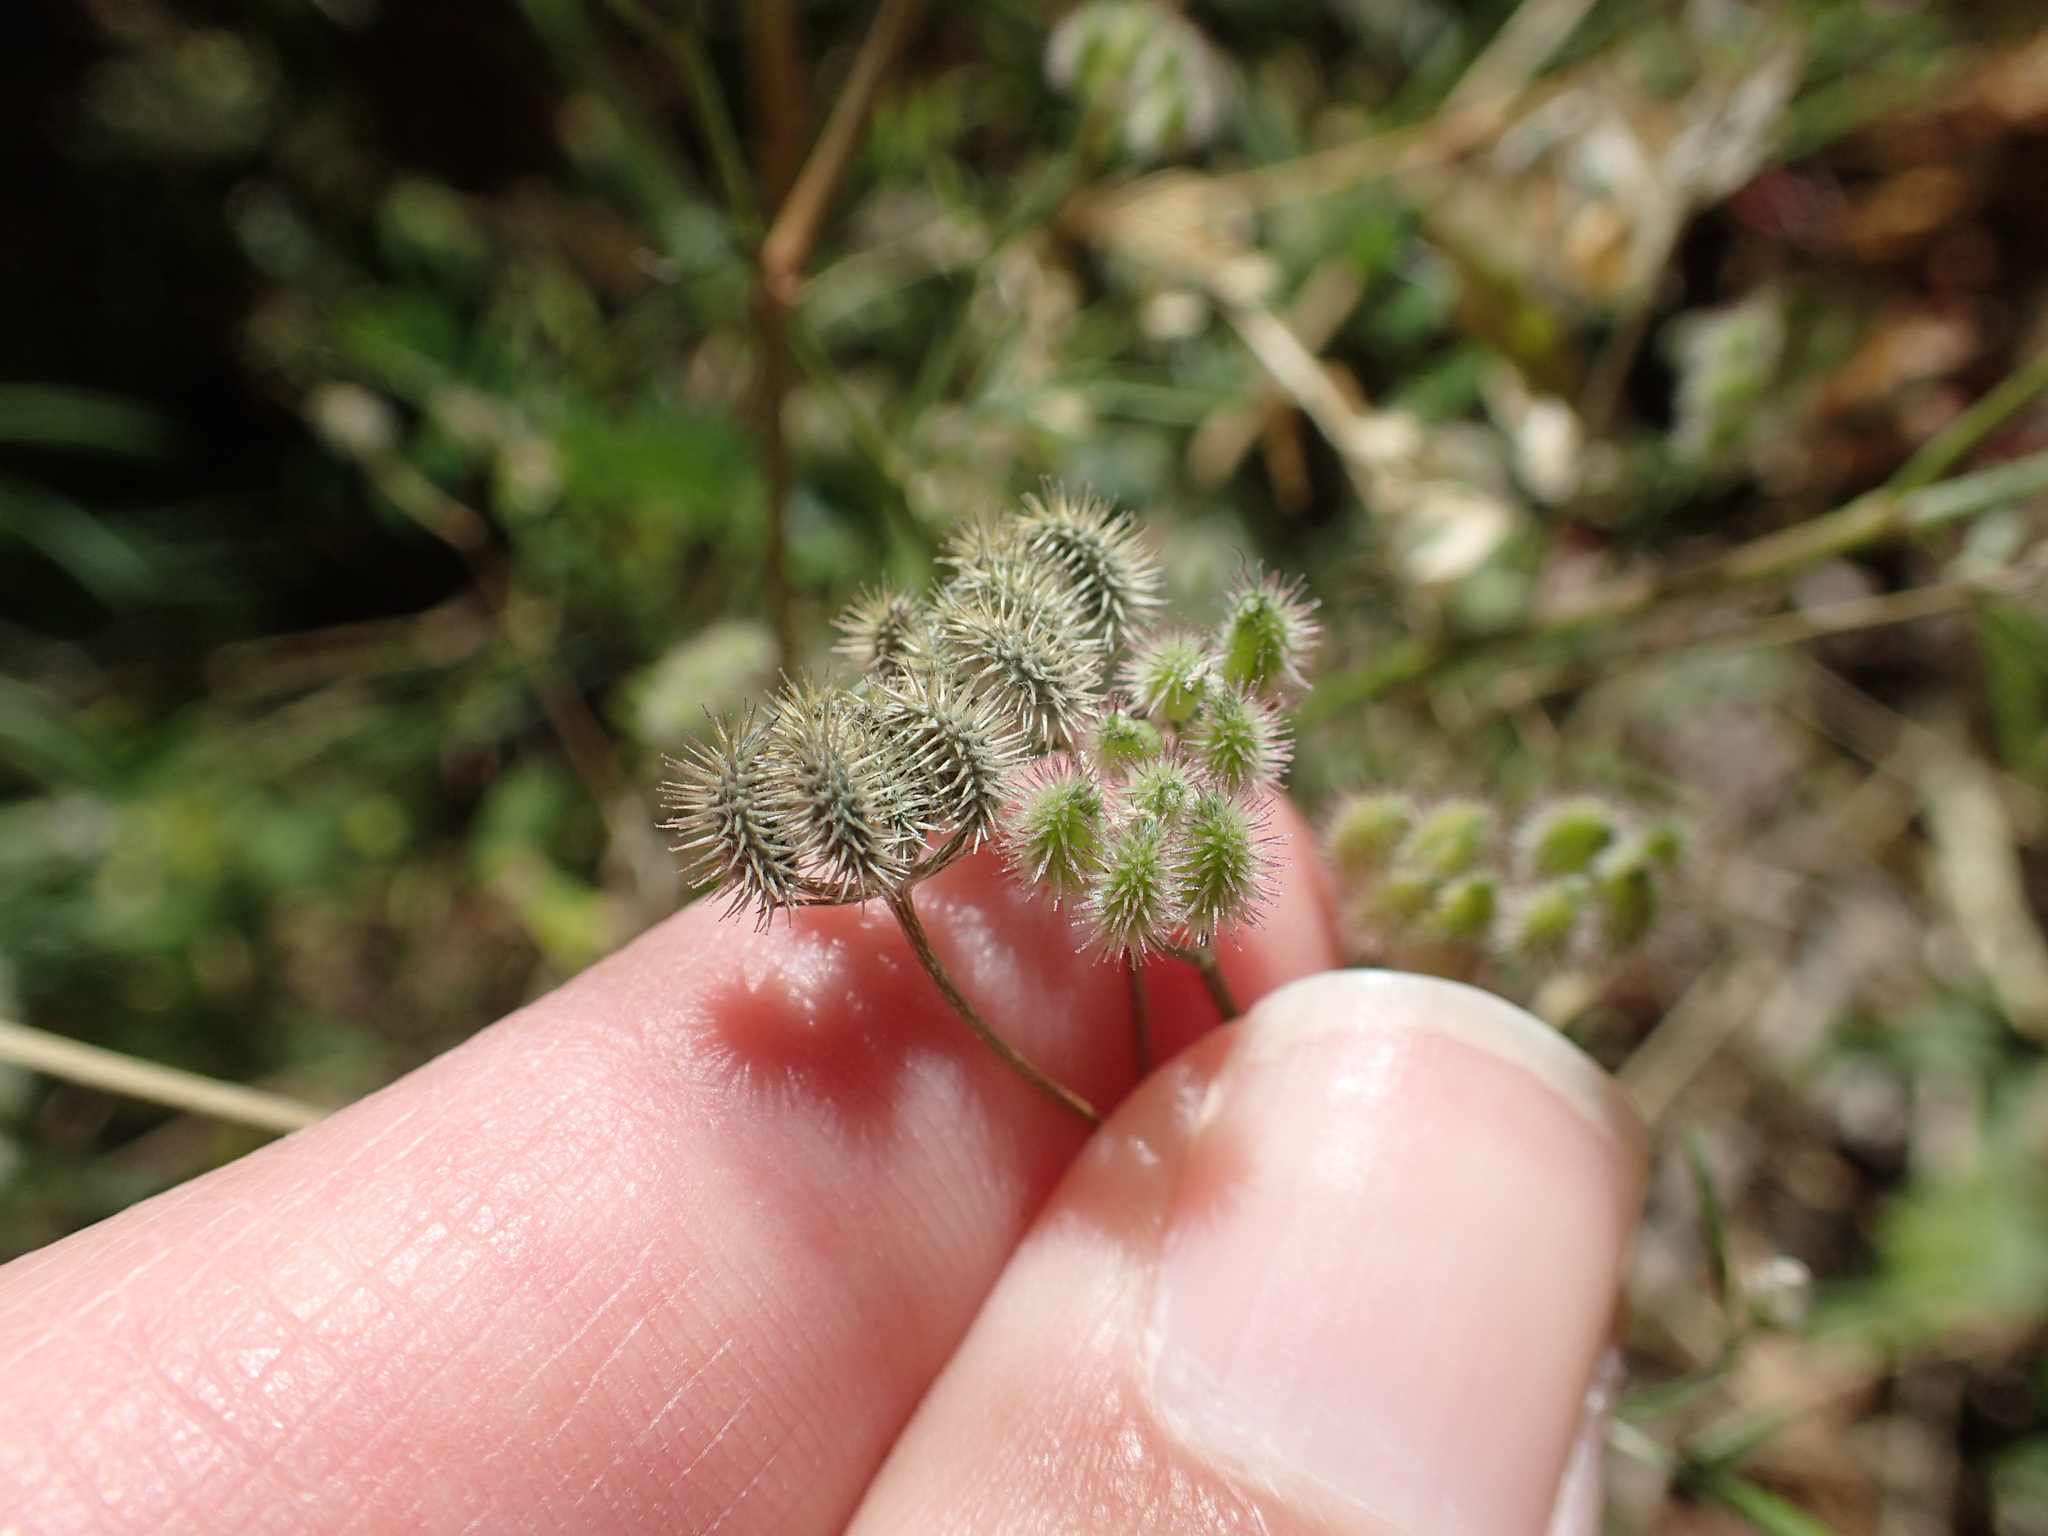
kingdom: Plantae
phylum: Tracheophyta
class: Magnoliopsida
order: Apiales
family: Apiaceae
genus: Torilis
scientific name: Torilis arvensis
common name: Spreading hedge-parsley
